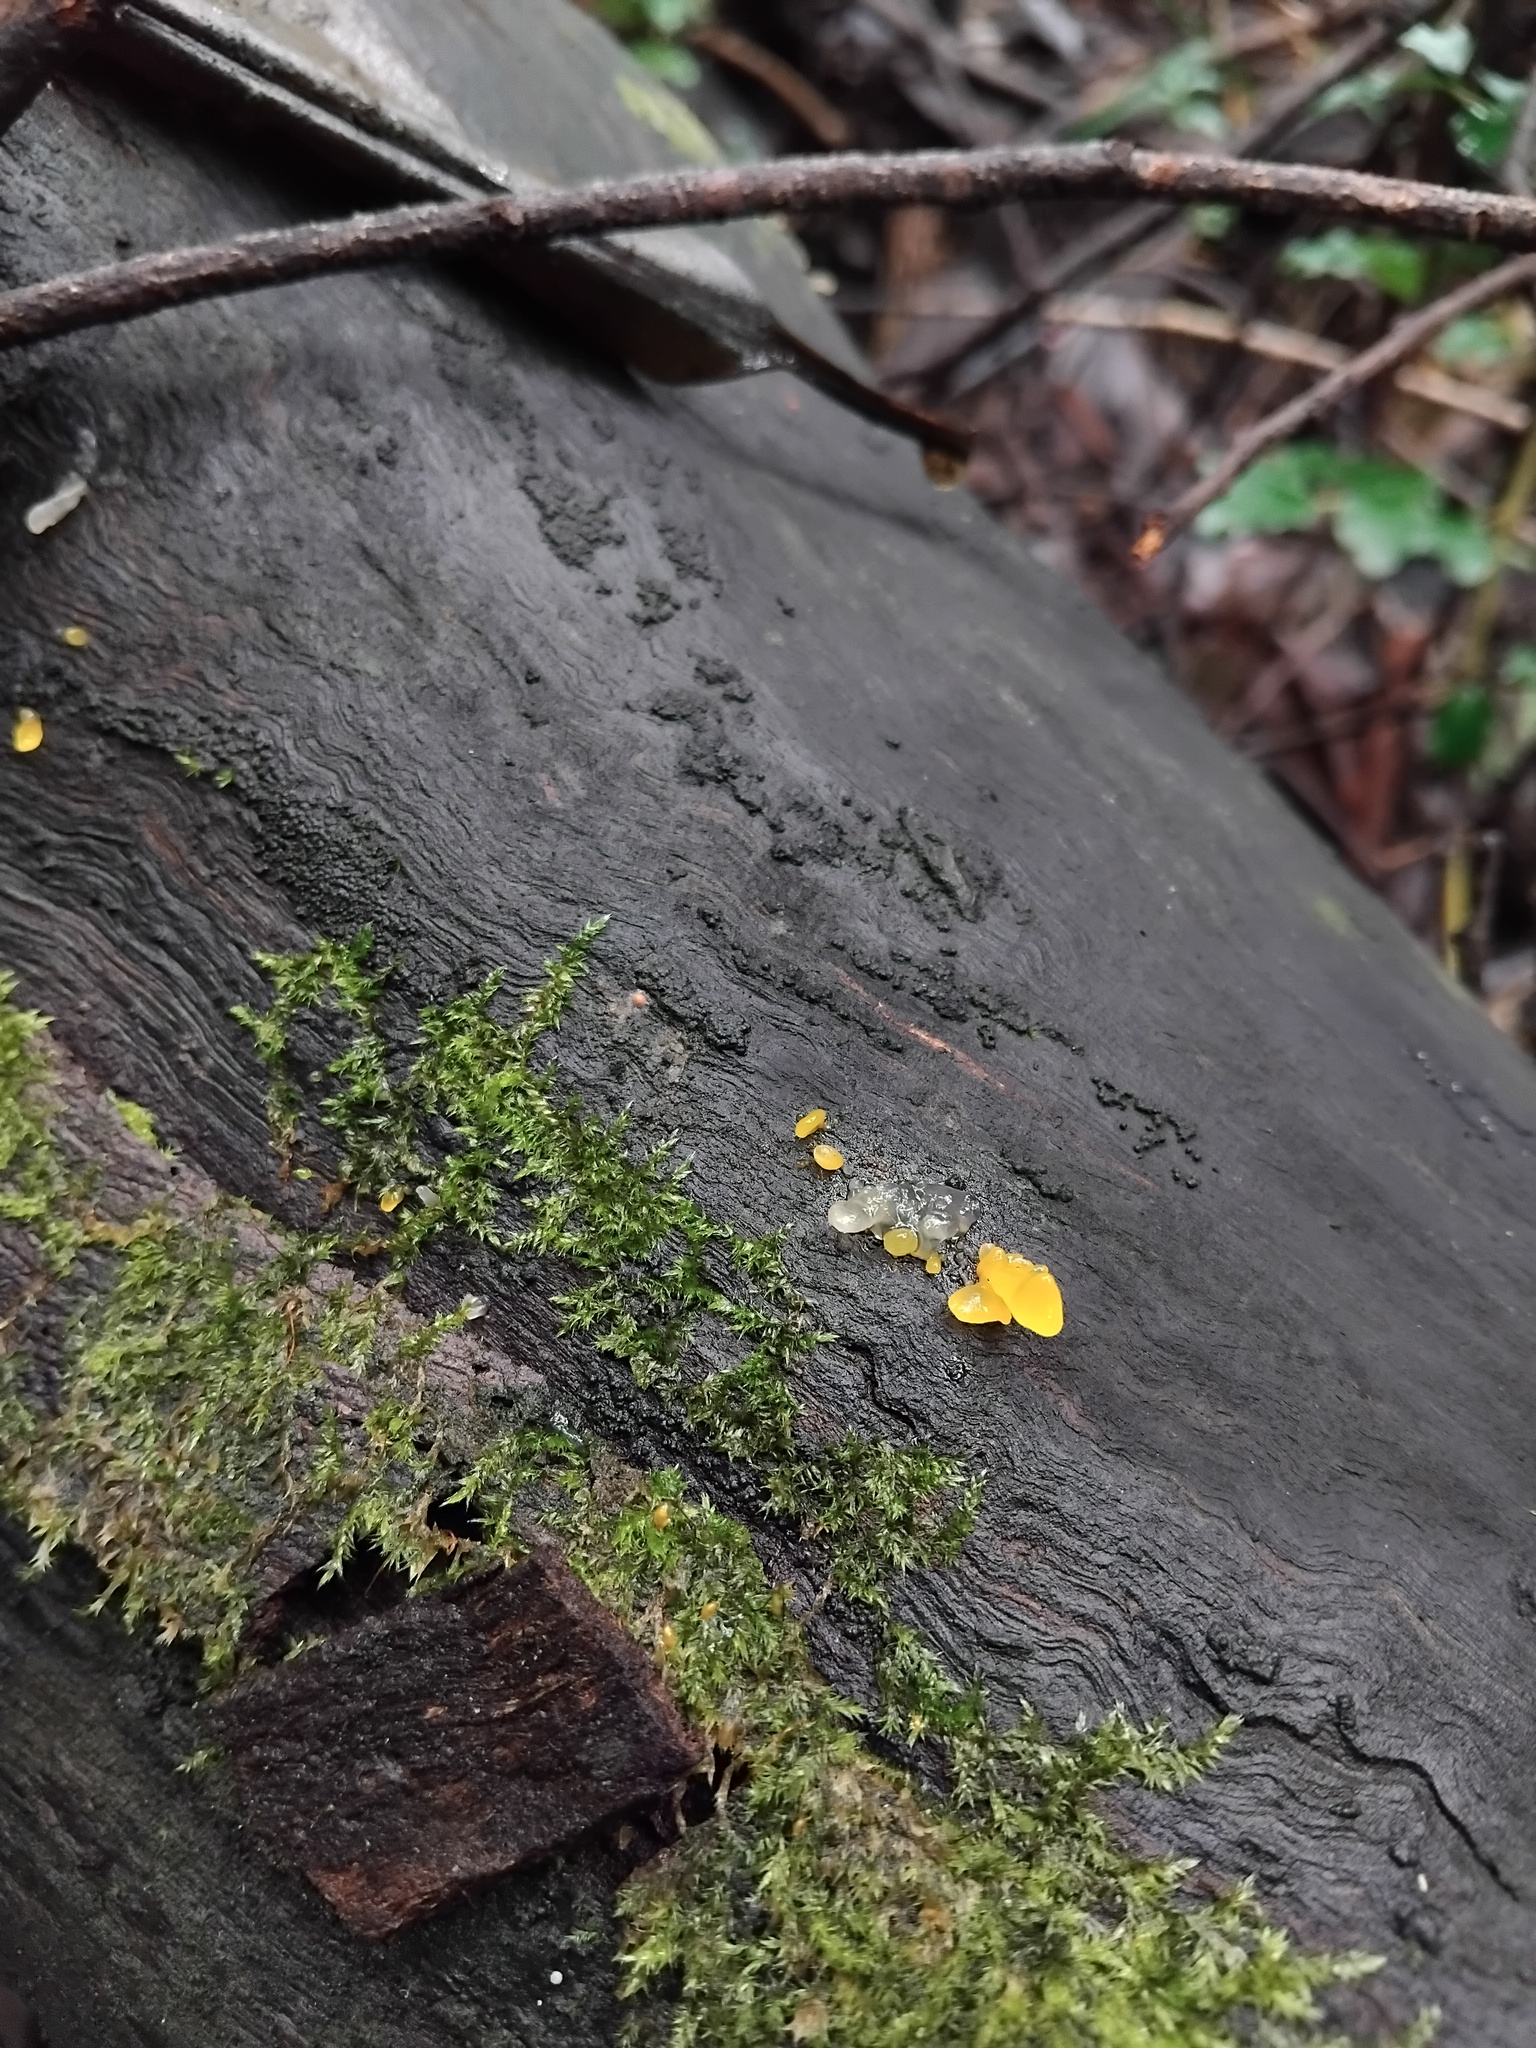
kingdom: Fungi
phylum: Ascomycota
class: Sordariomycetes
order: Xylariales
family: Hypoxylaceae
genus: Annulohypoxylon
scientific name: Annulohypoxylon bovei
